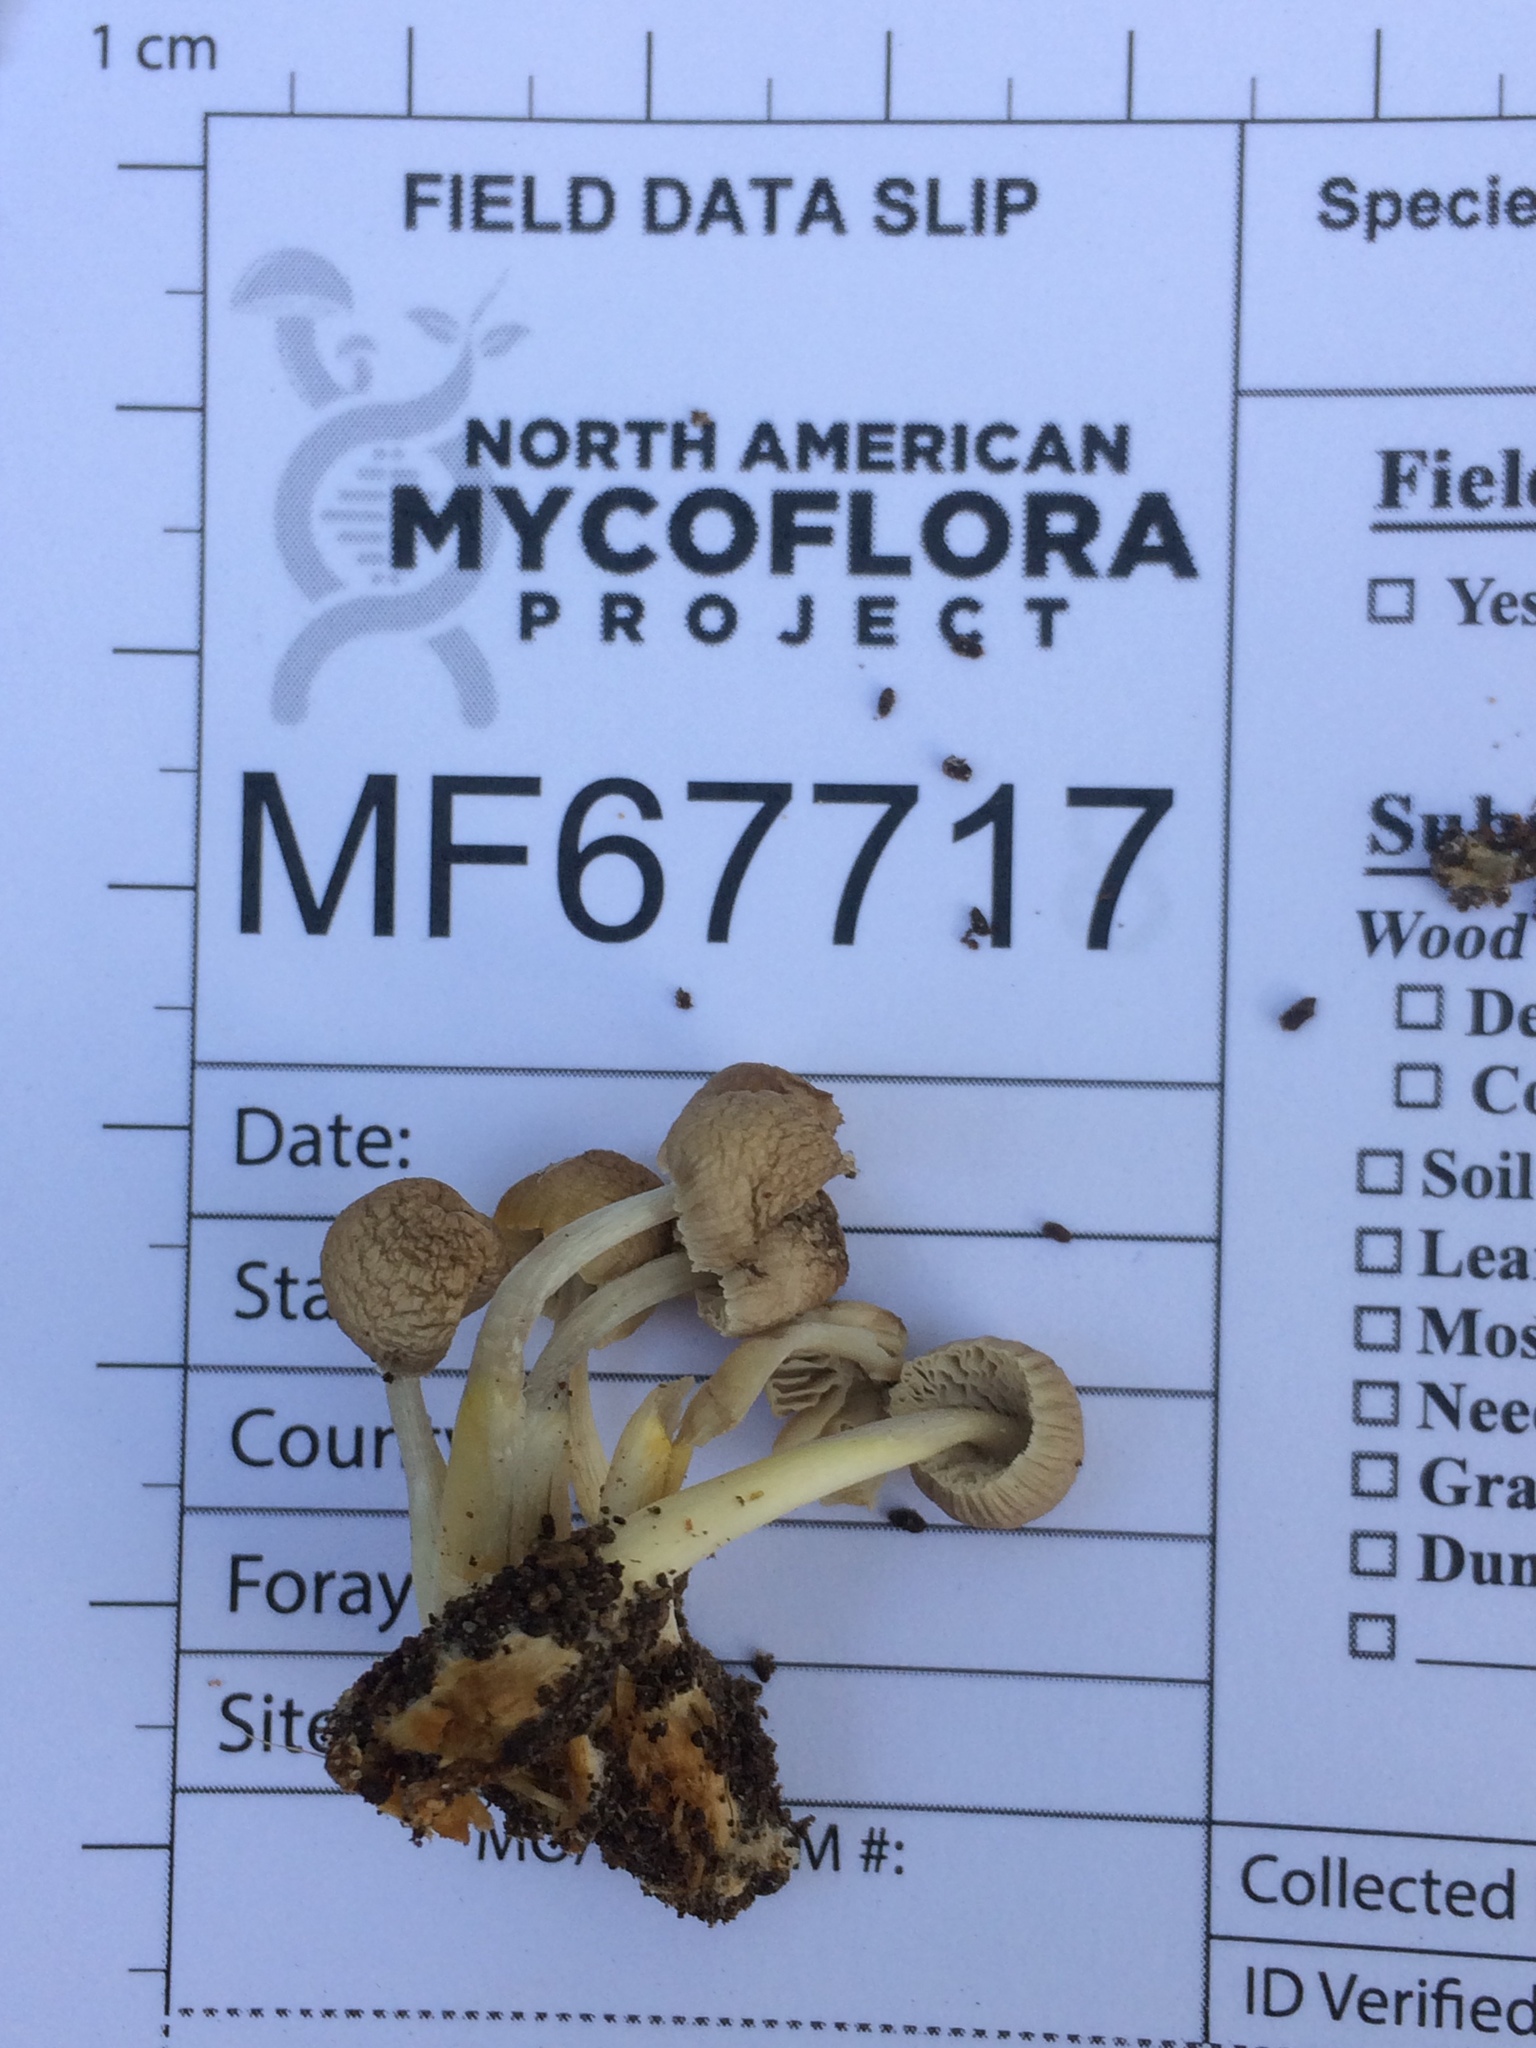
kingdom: Fungi
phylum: Basidiomycota
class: Agaricomycetes
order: Agaricales
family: Mycenaceae
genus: Mycena
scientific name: Mycena inclinata
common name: Clustered bonnet
